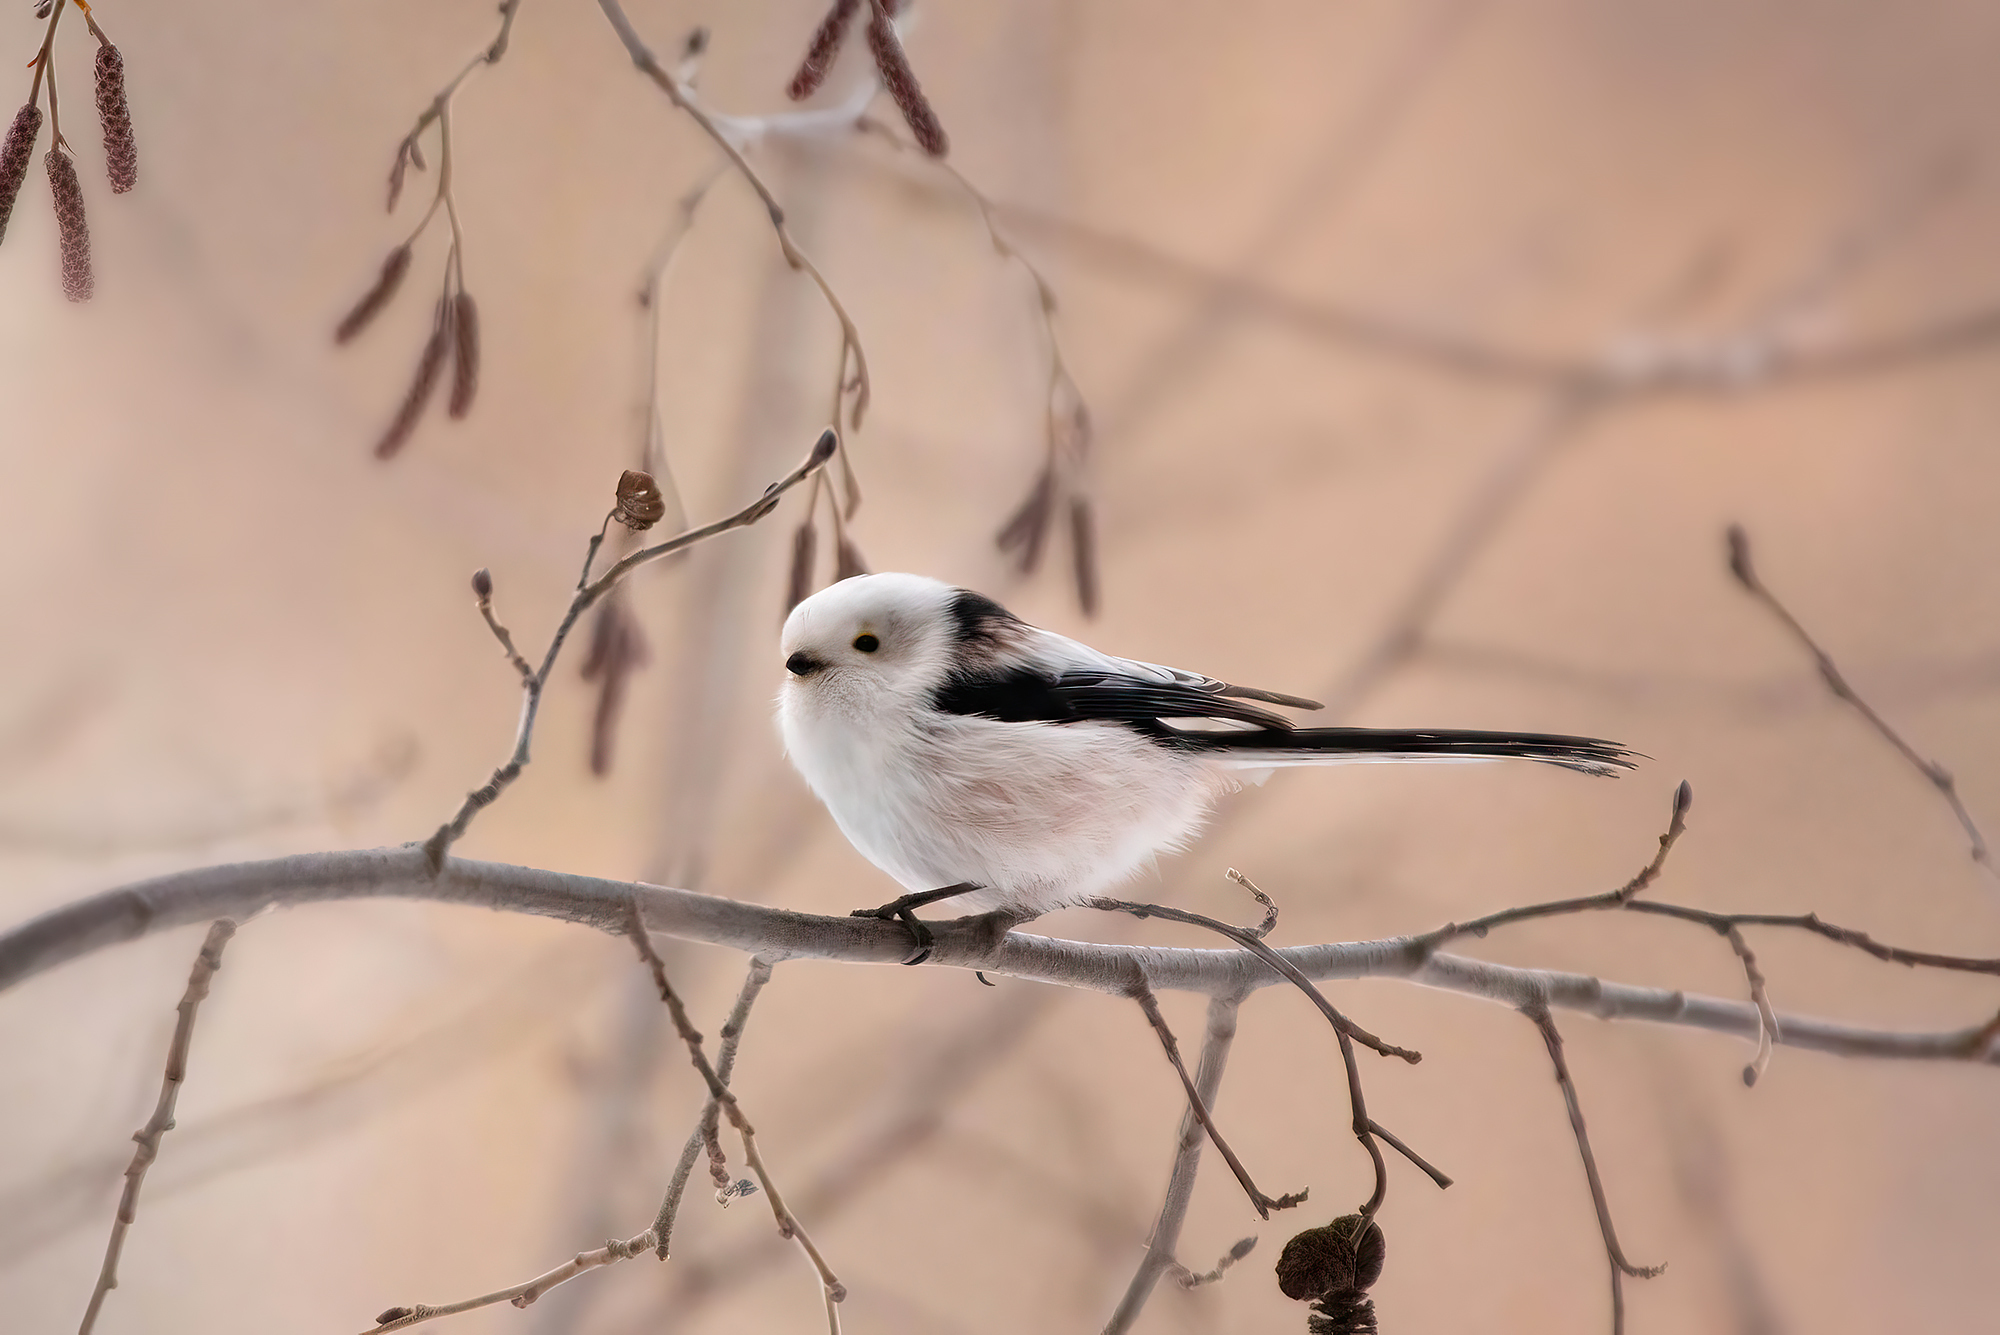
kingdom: Animalia
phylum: Chordata
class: Aves
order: Passeriformes
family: Aegithalidae
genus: Aegithalos
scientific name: Aegithalos caudatus
